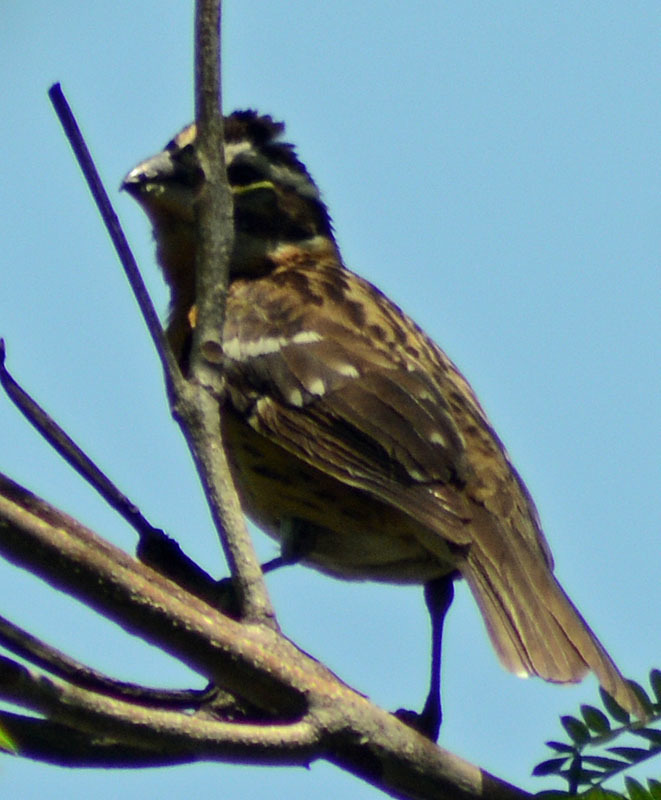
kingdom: Animalia
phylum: Chordata
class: Aves
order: Passeriformes
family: Cardinalidae
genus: Pheucticus
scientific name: Pheucticus melanocephalus
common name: Black-headed grosbeak
